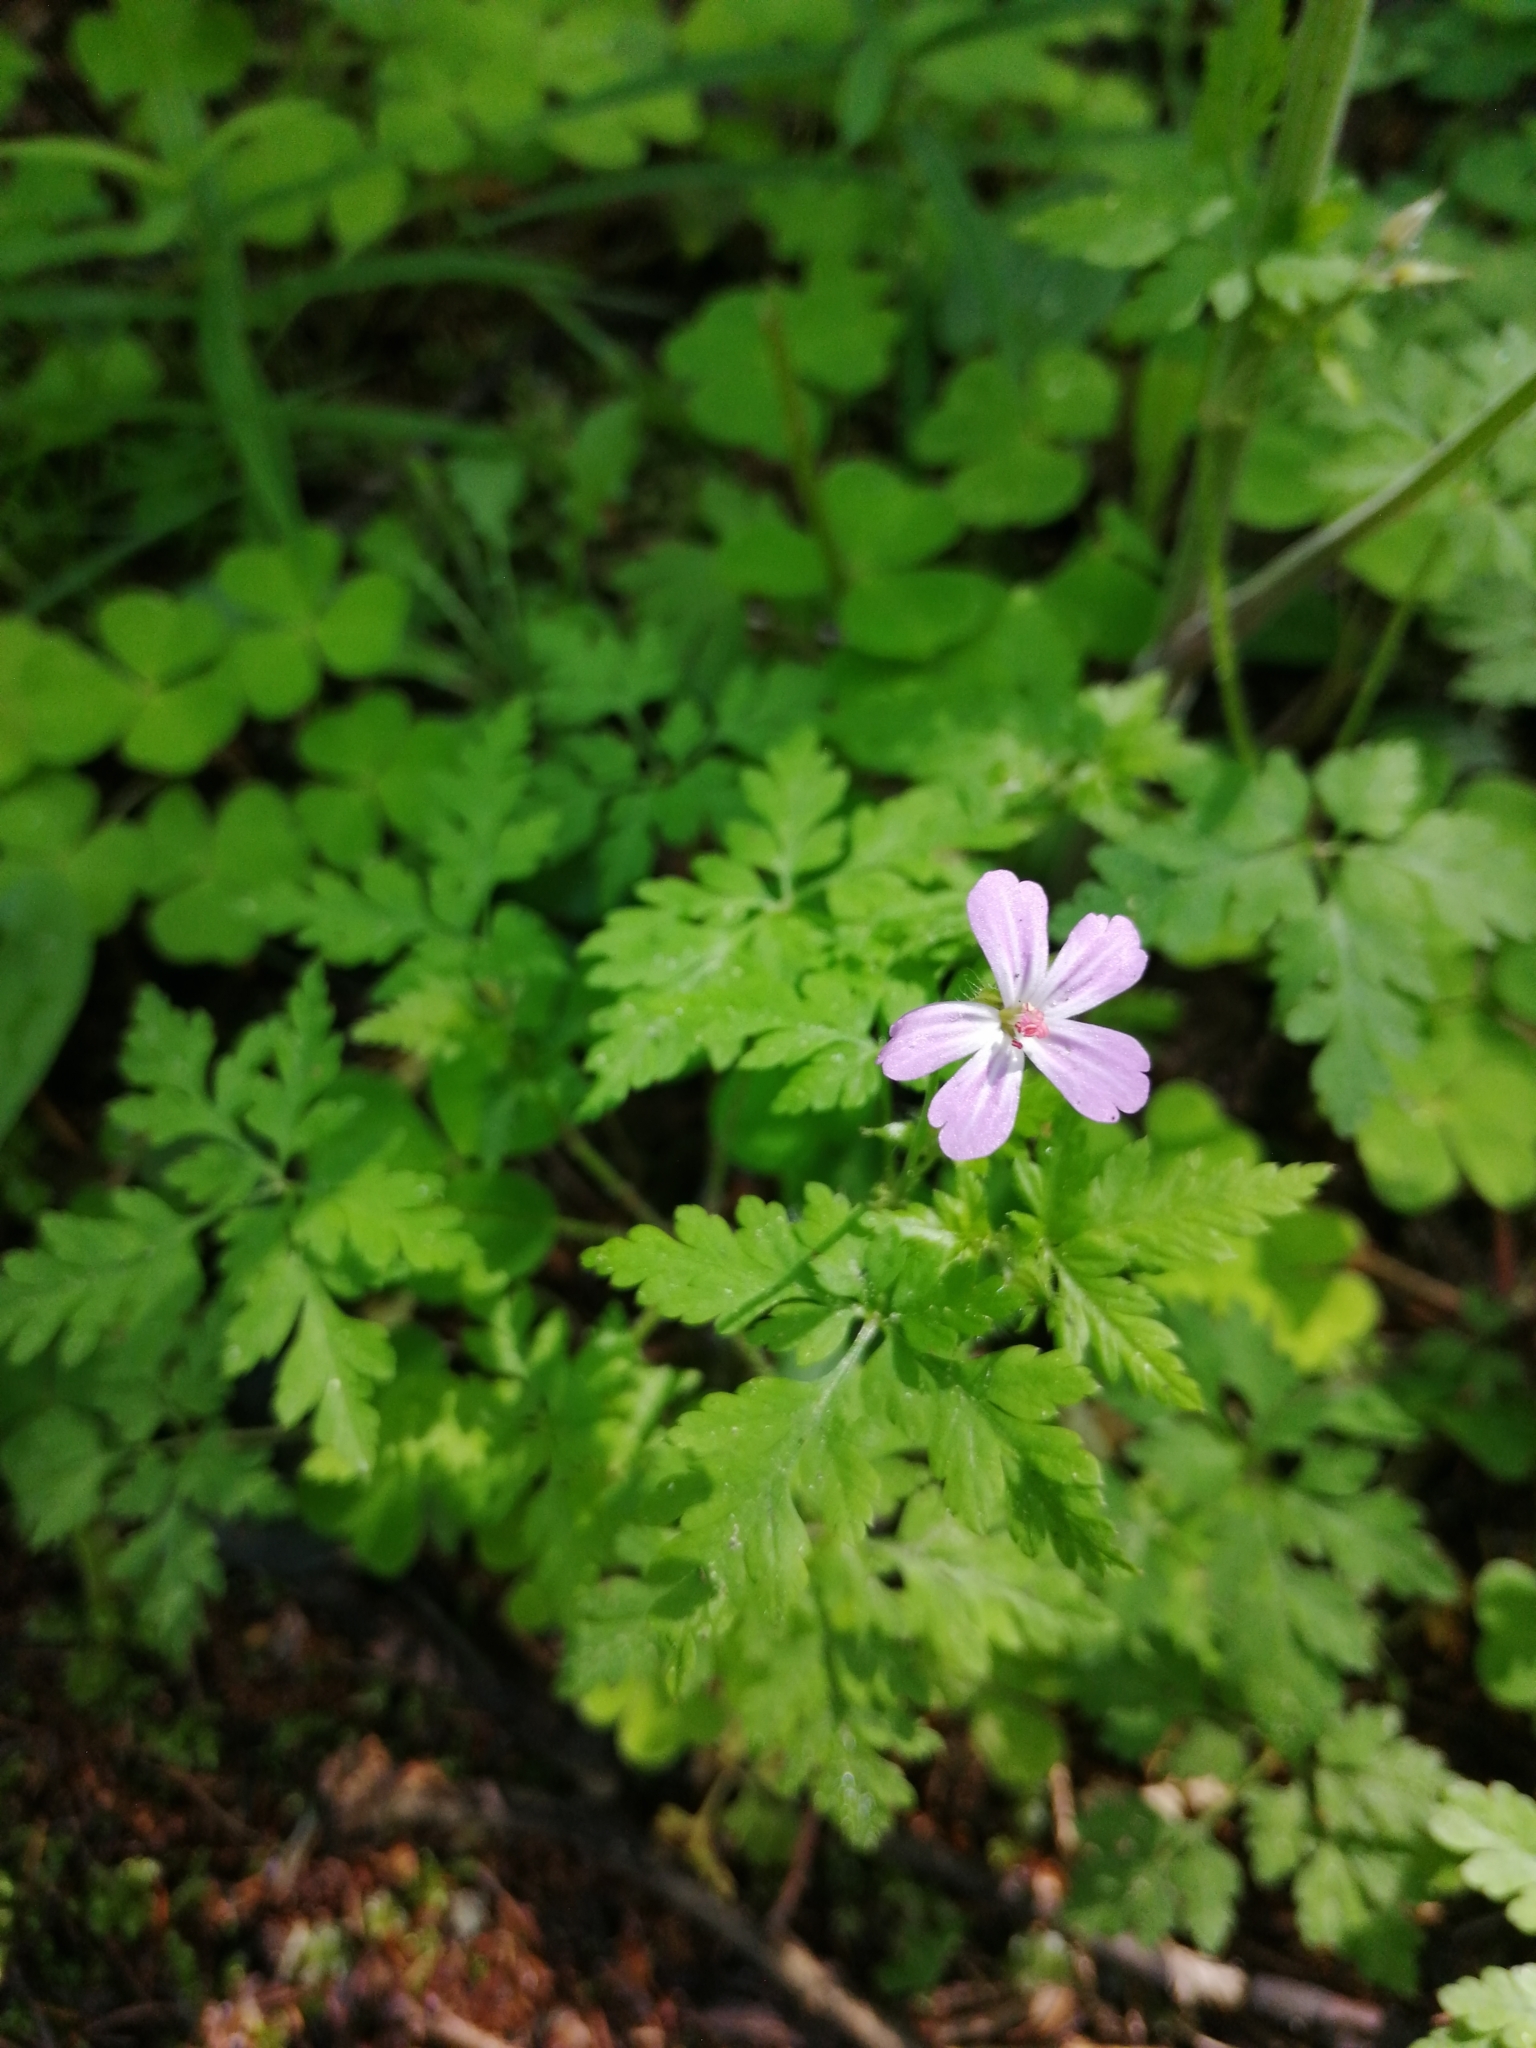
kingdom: Plantae
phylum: Tracheophyta
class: Magnoliopsida
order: Geraniales
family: Geraniaceae
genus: Geranium
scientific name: Geranium robertianum
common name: Herb-robert
